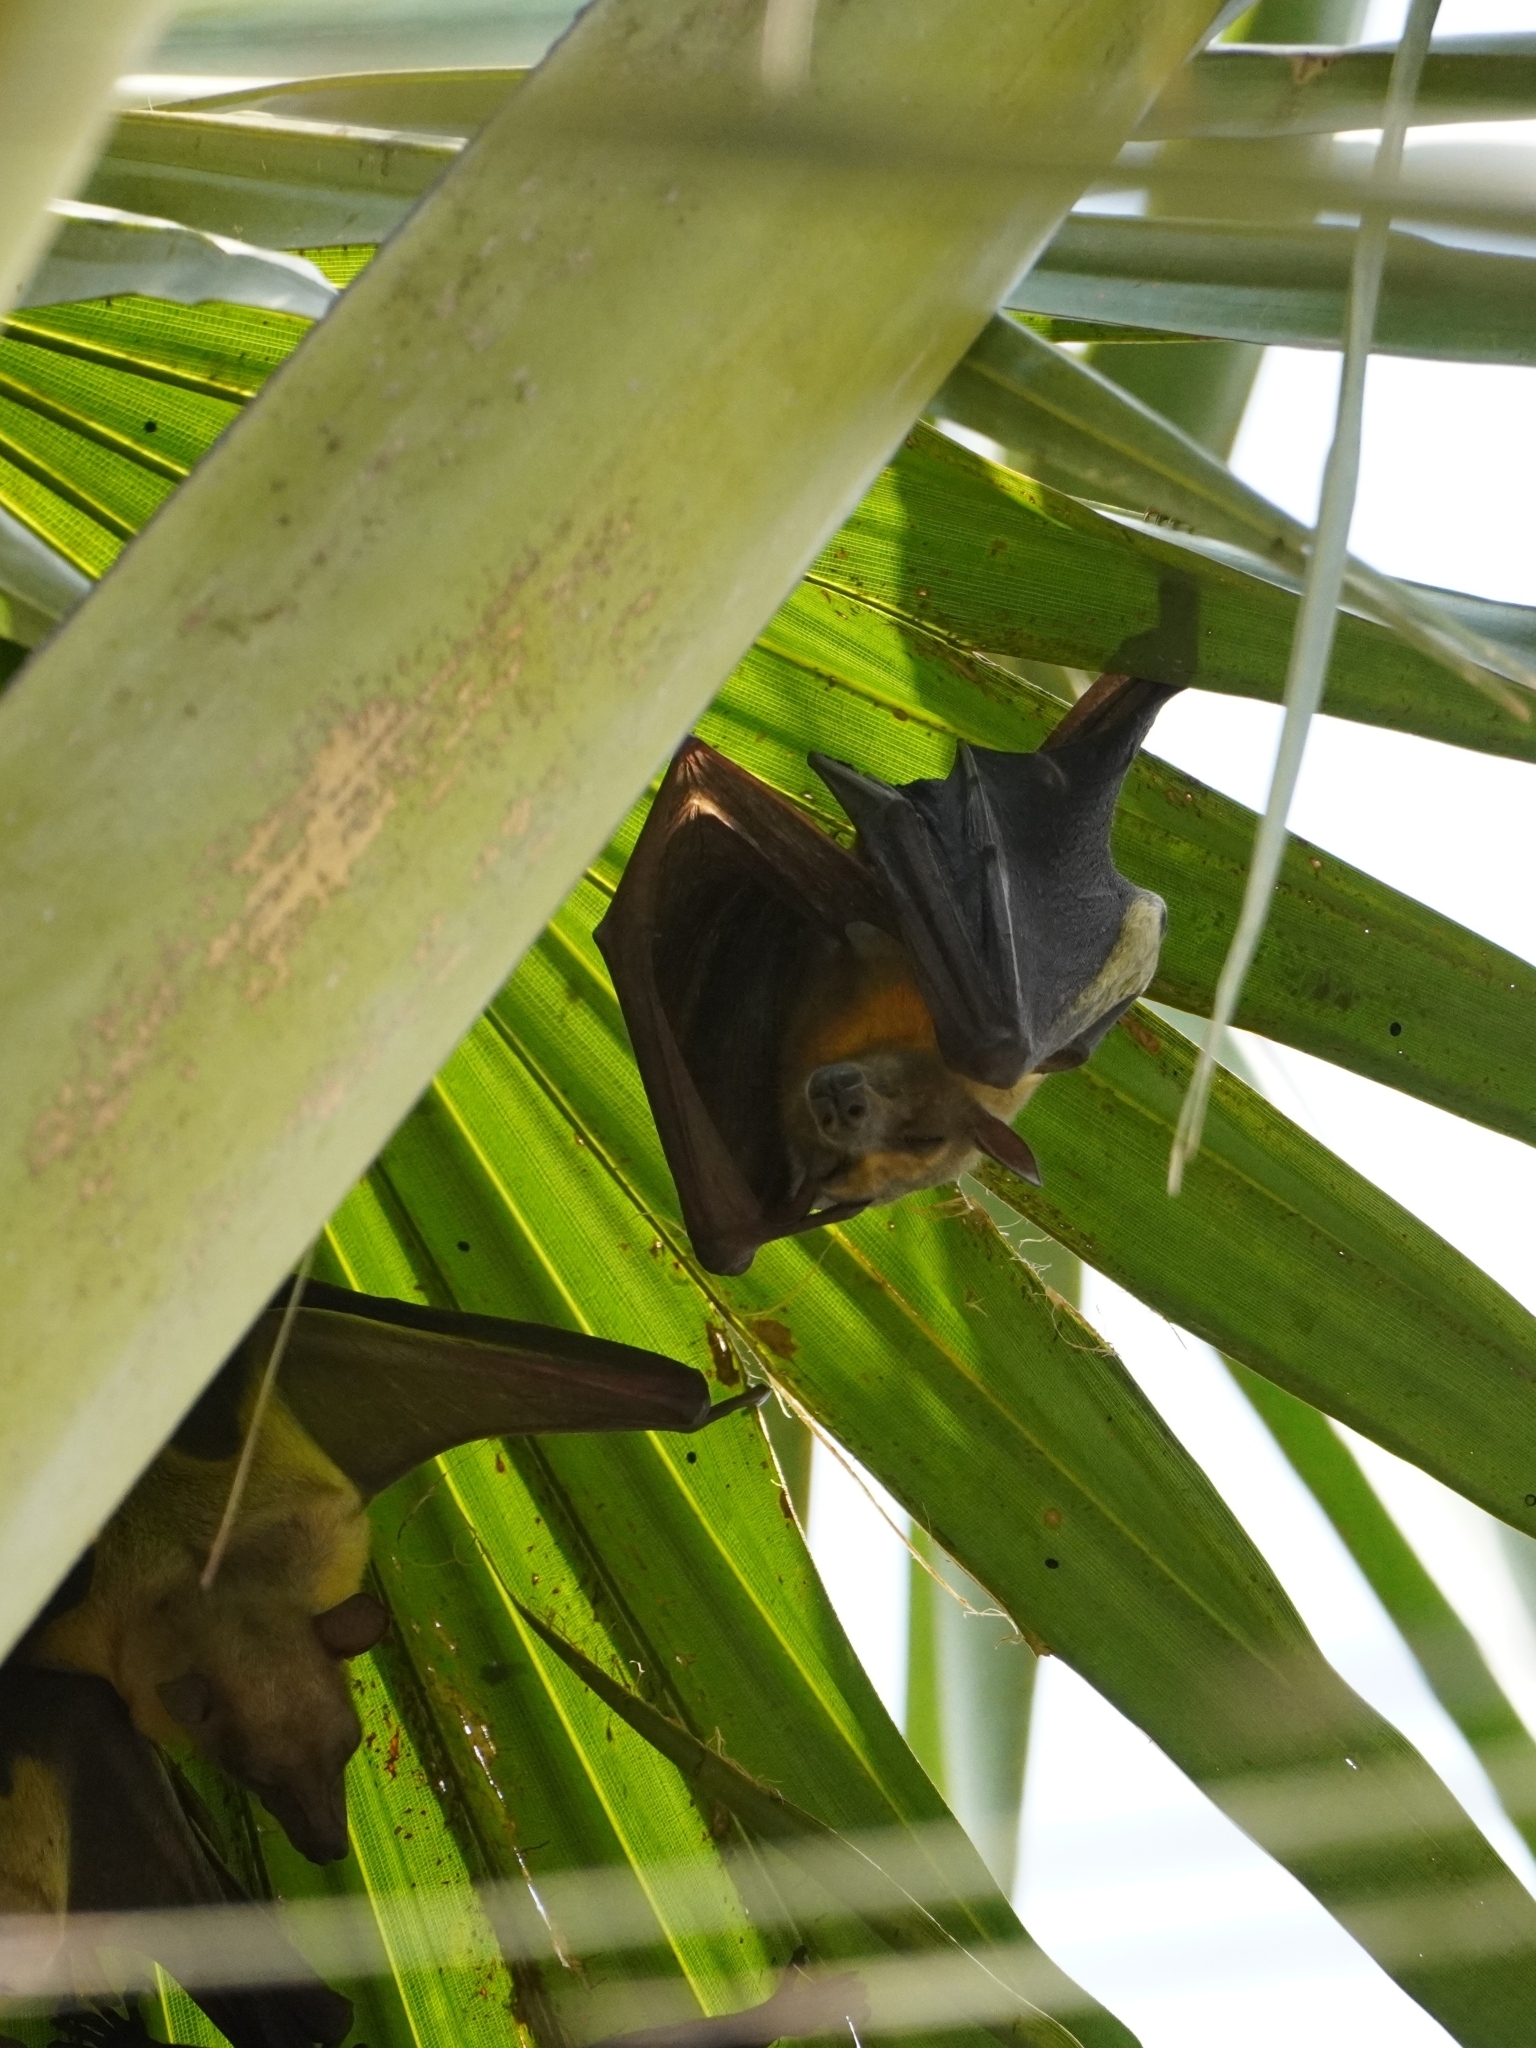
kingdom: Animalia
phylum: Chordata
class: Mammalia
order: Chiroptera
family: Pteropodidae
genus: Eidolon
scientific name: Eidolon helvum
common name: Straw-colored fruit bat
